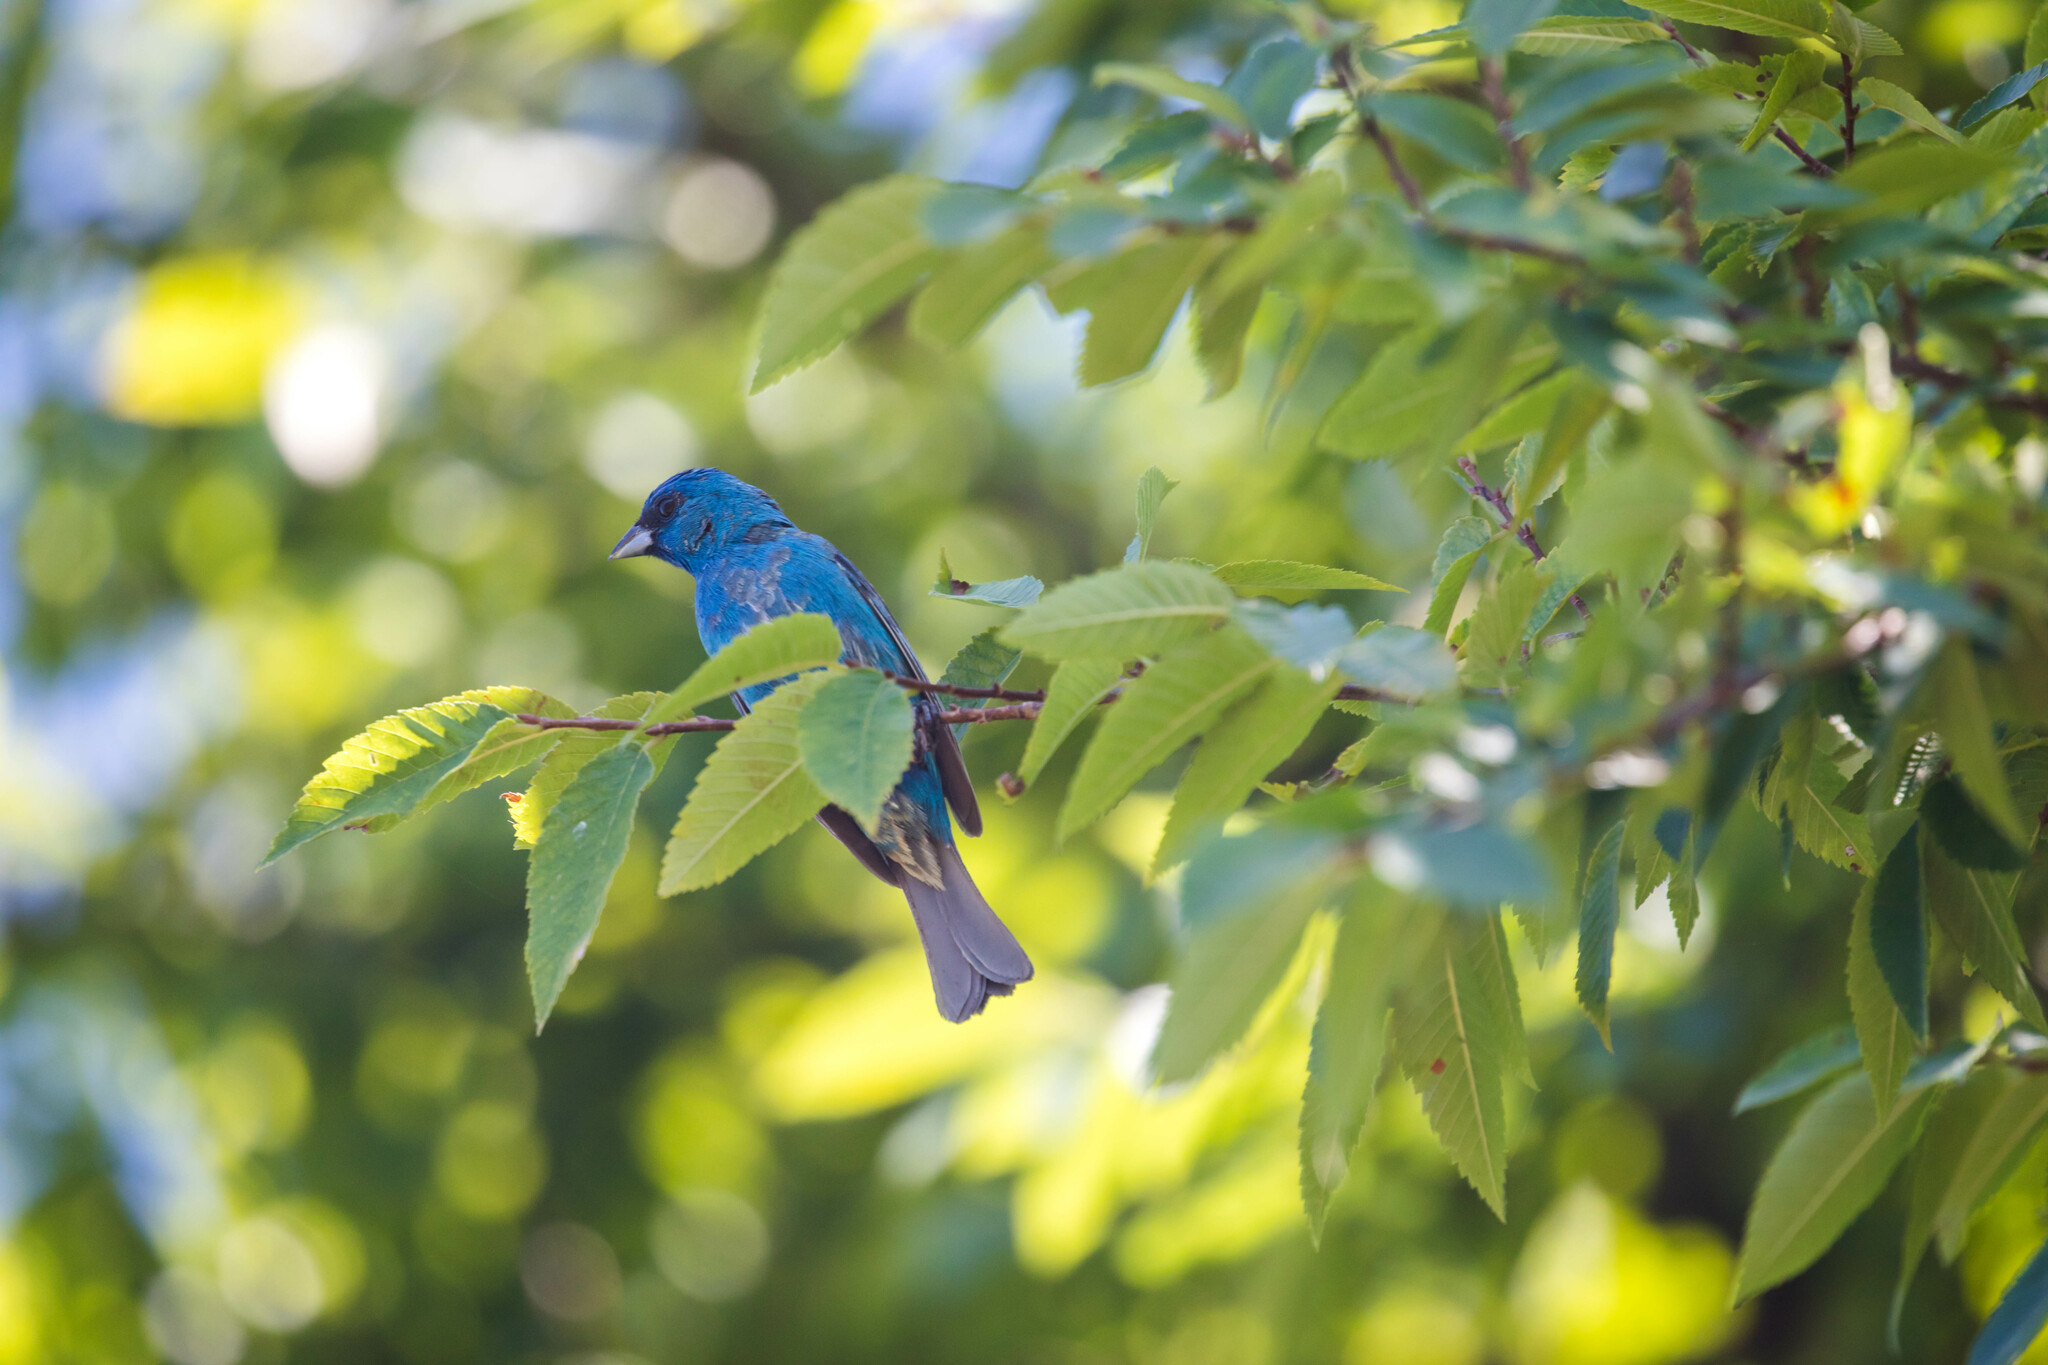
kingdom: Animalia
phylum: Chordata
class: Aves
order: Passeriformes
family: Cardinalidae
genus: Passerina
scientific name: Passerina cyanea
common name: Indigo bunting
